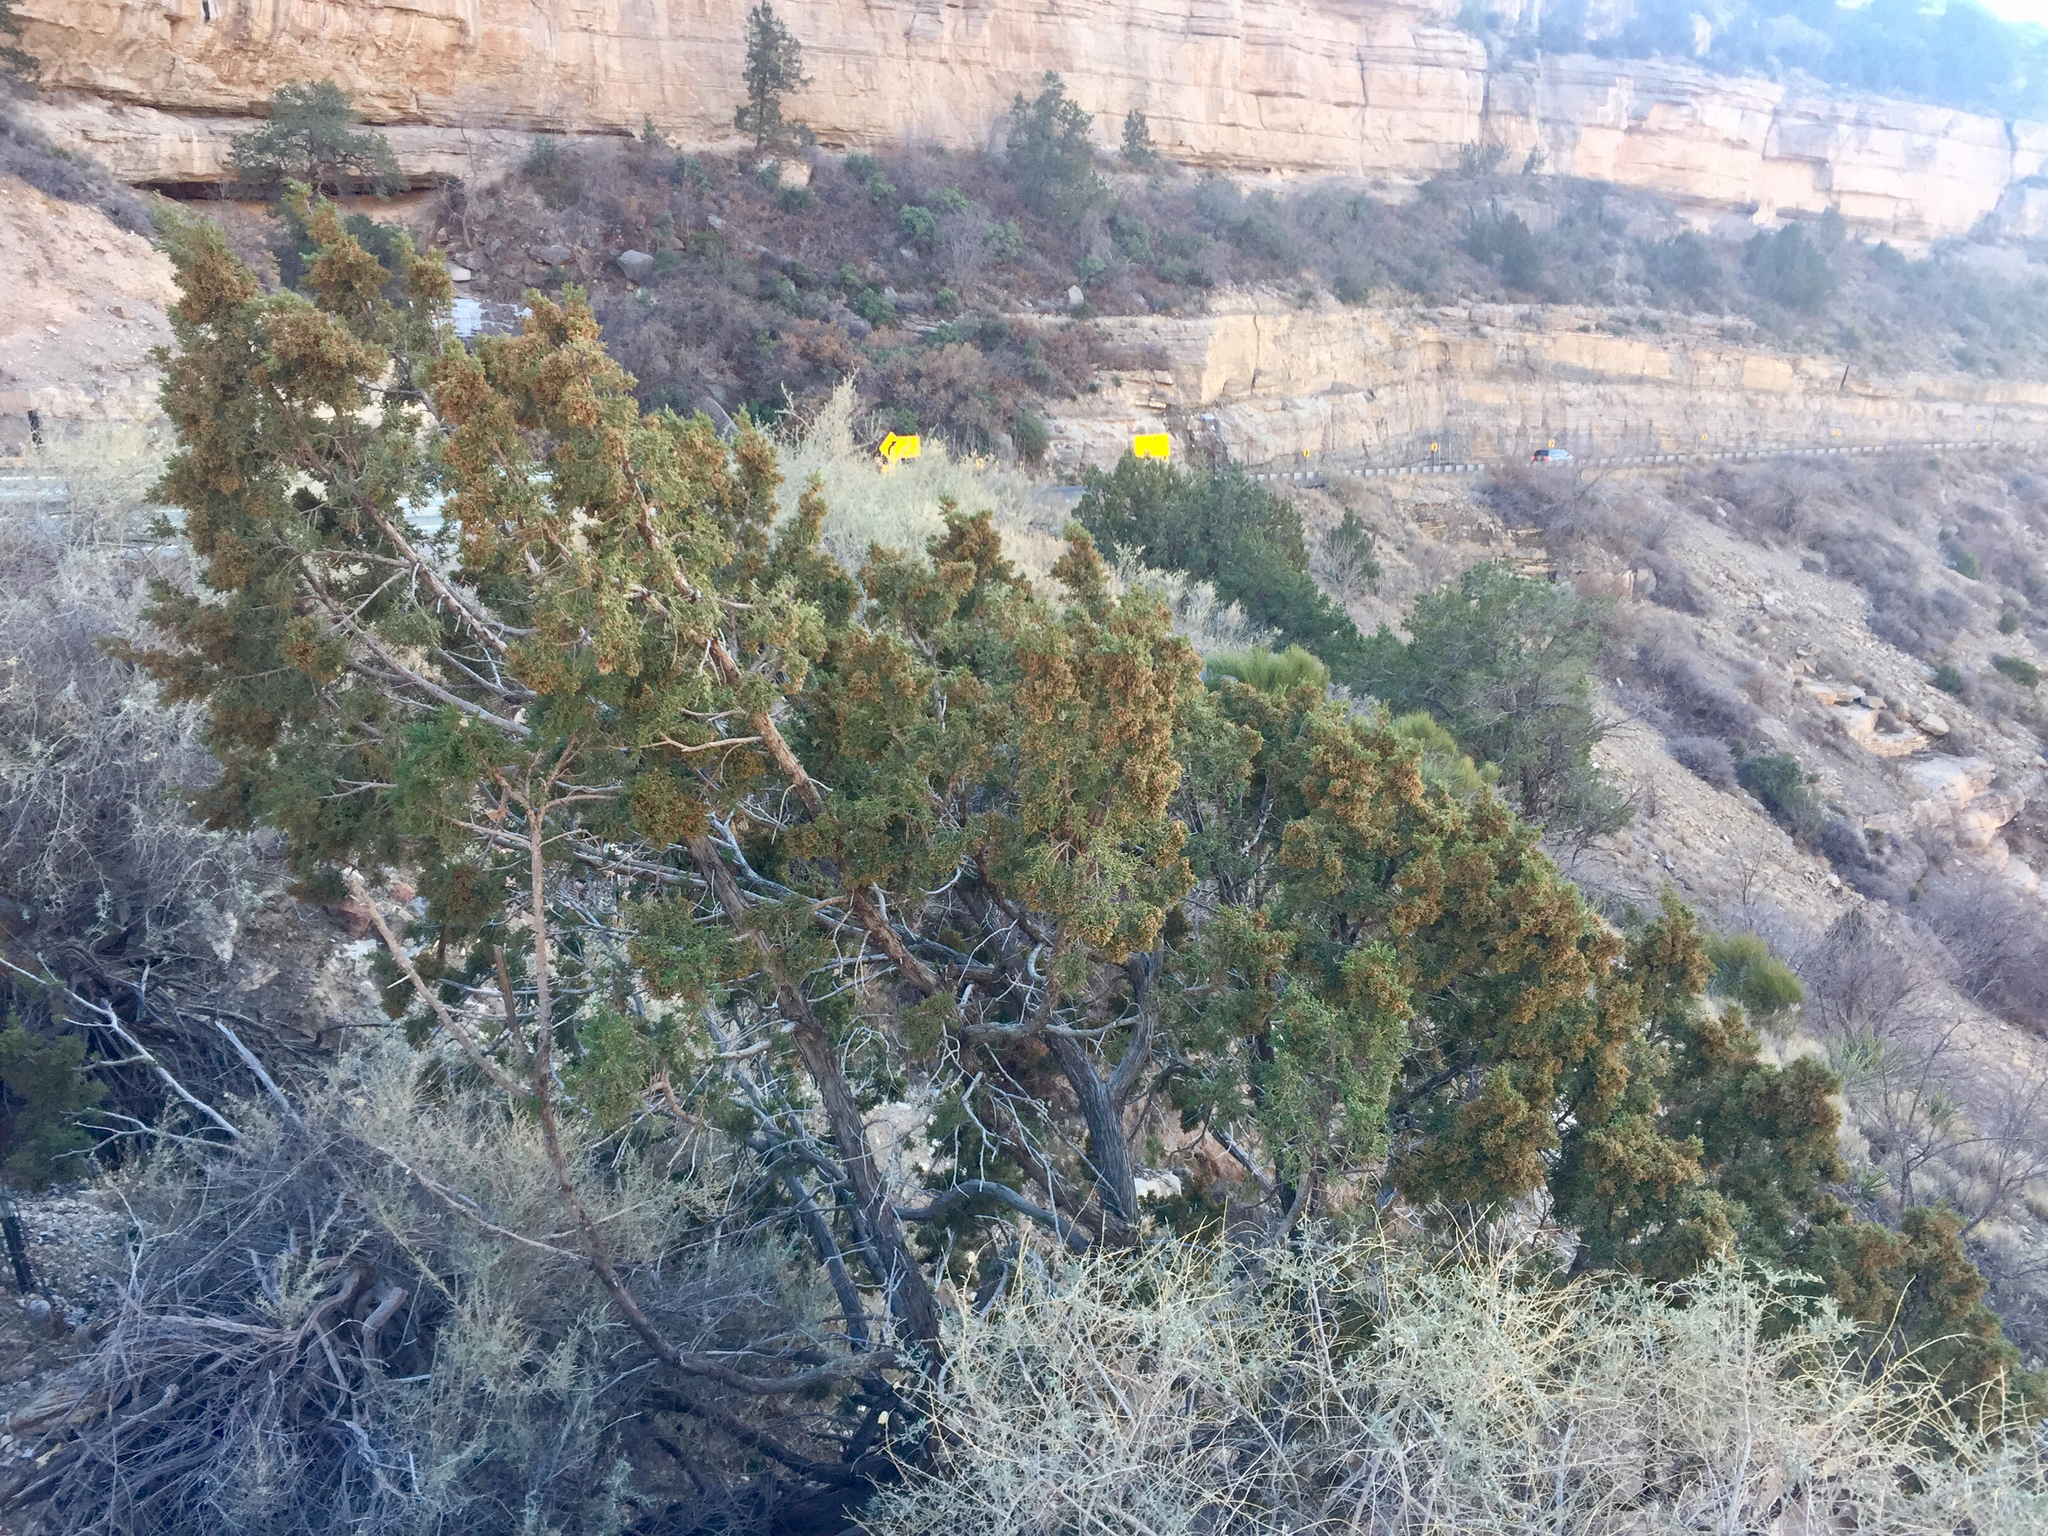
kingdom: Plantae
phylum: Tracheophyta
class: Pinopsida
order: Pinales
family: Cupressaceae
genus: Juniperus
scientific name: Juniperus monosperma
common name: One-seed juniper
